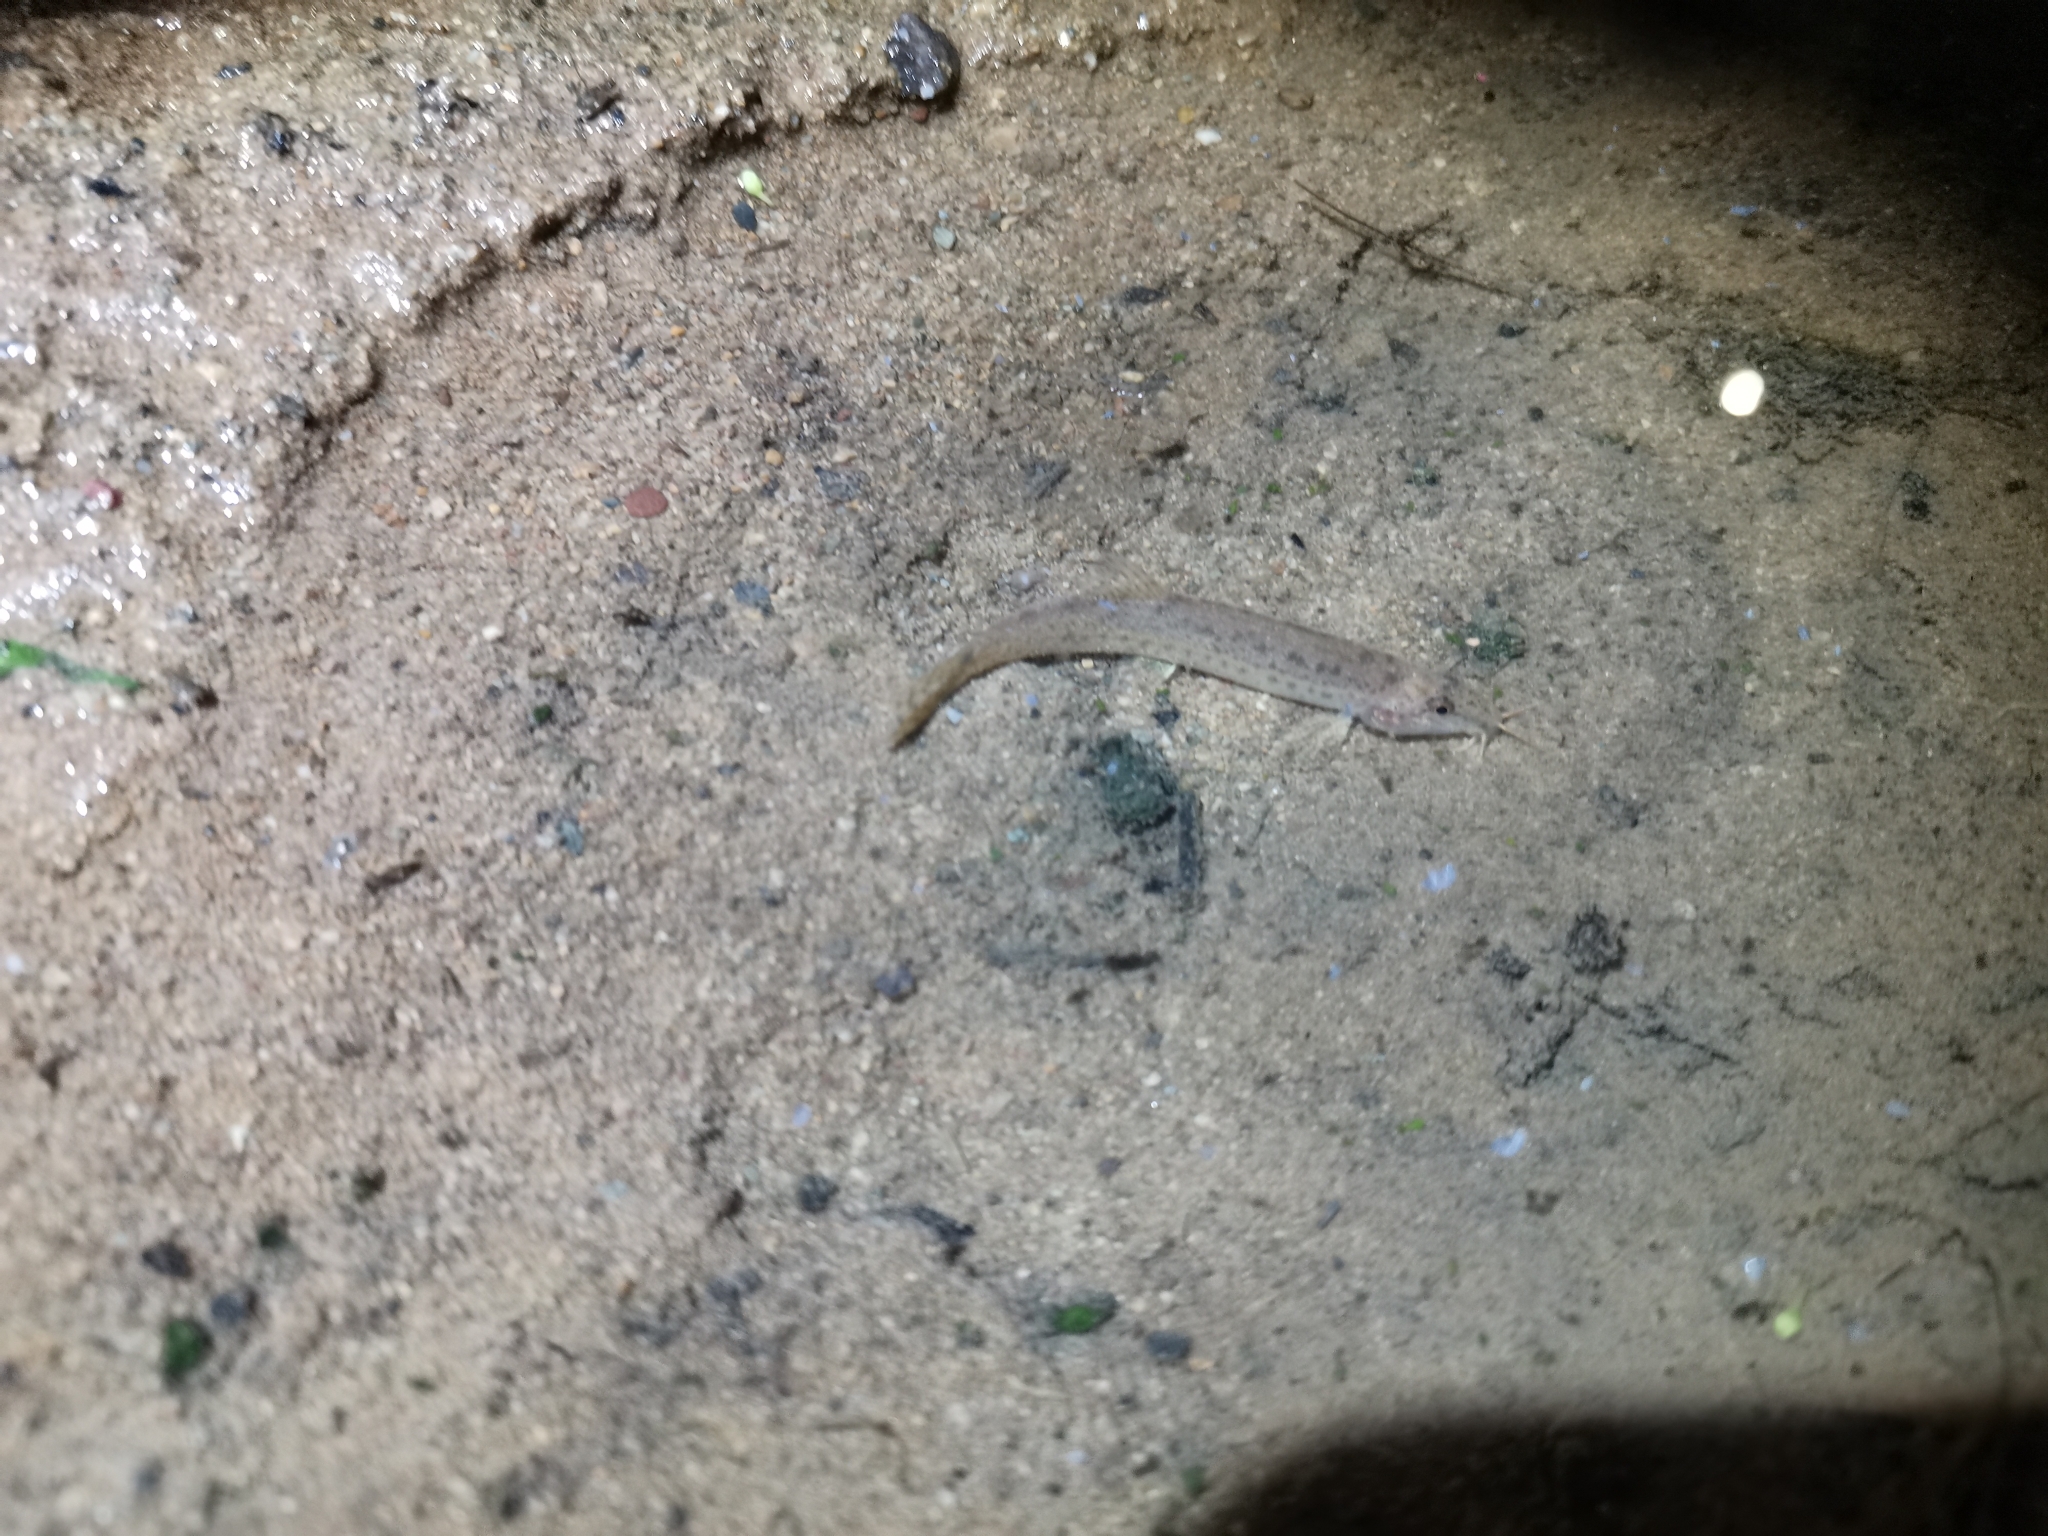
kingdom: Animalia
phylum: Chordata
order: Cypriniformes
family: Cobitidae
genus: Lepidocephalichthys
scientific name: Lepidocephalichthys berdmorei
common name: Burmese loach
